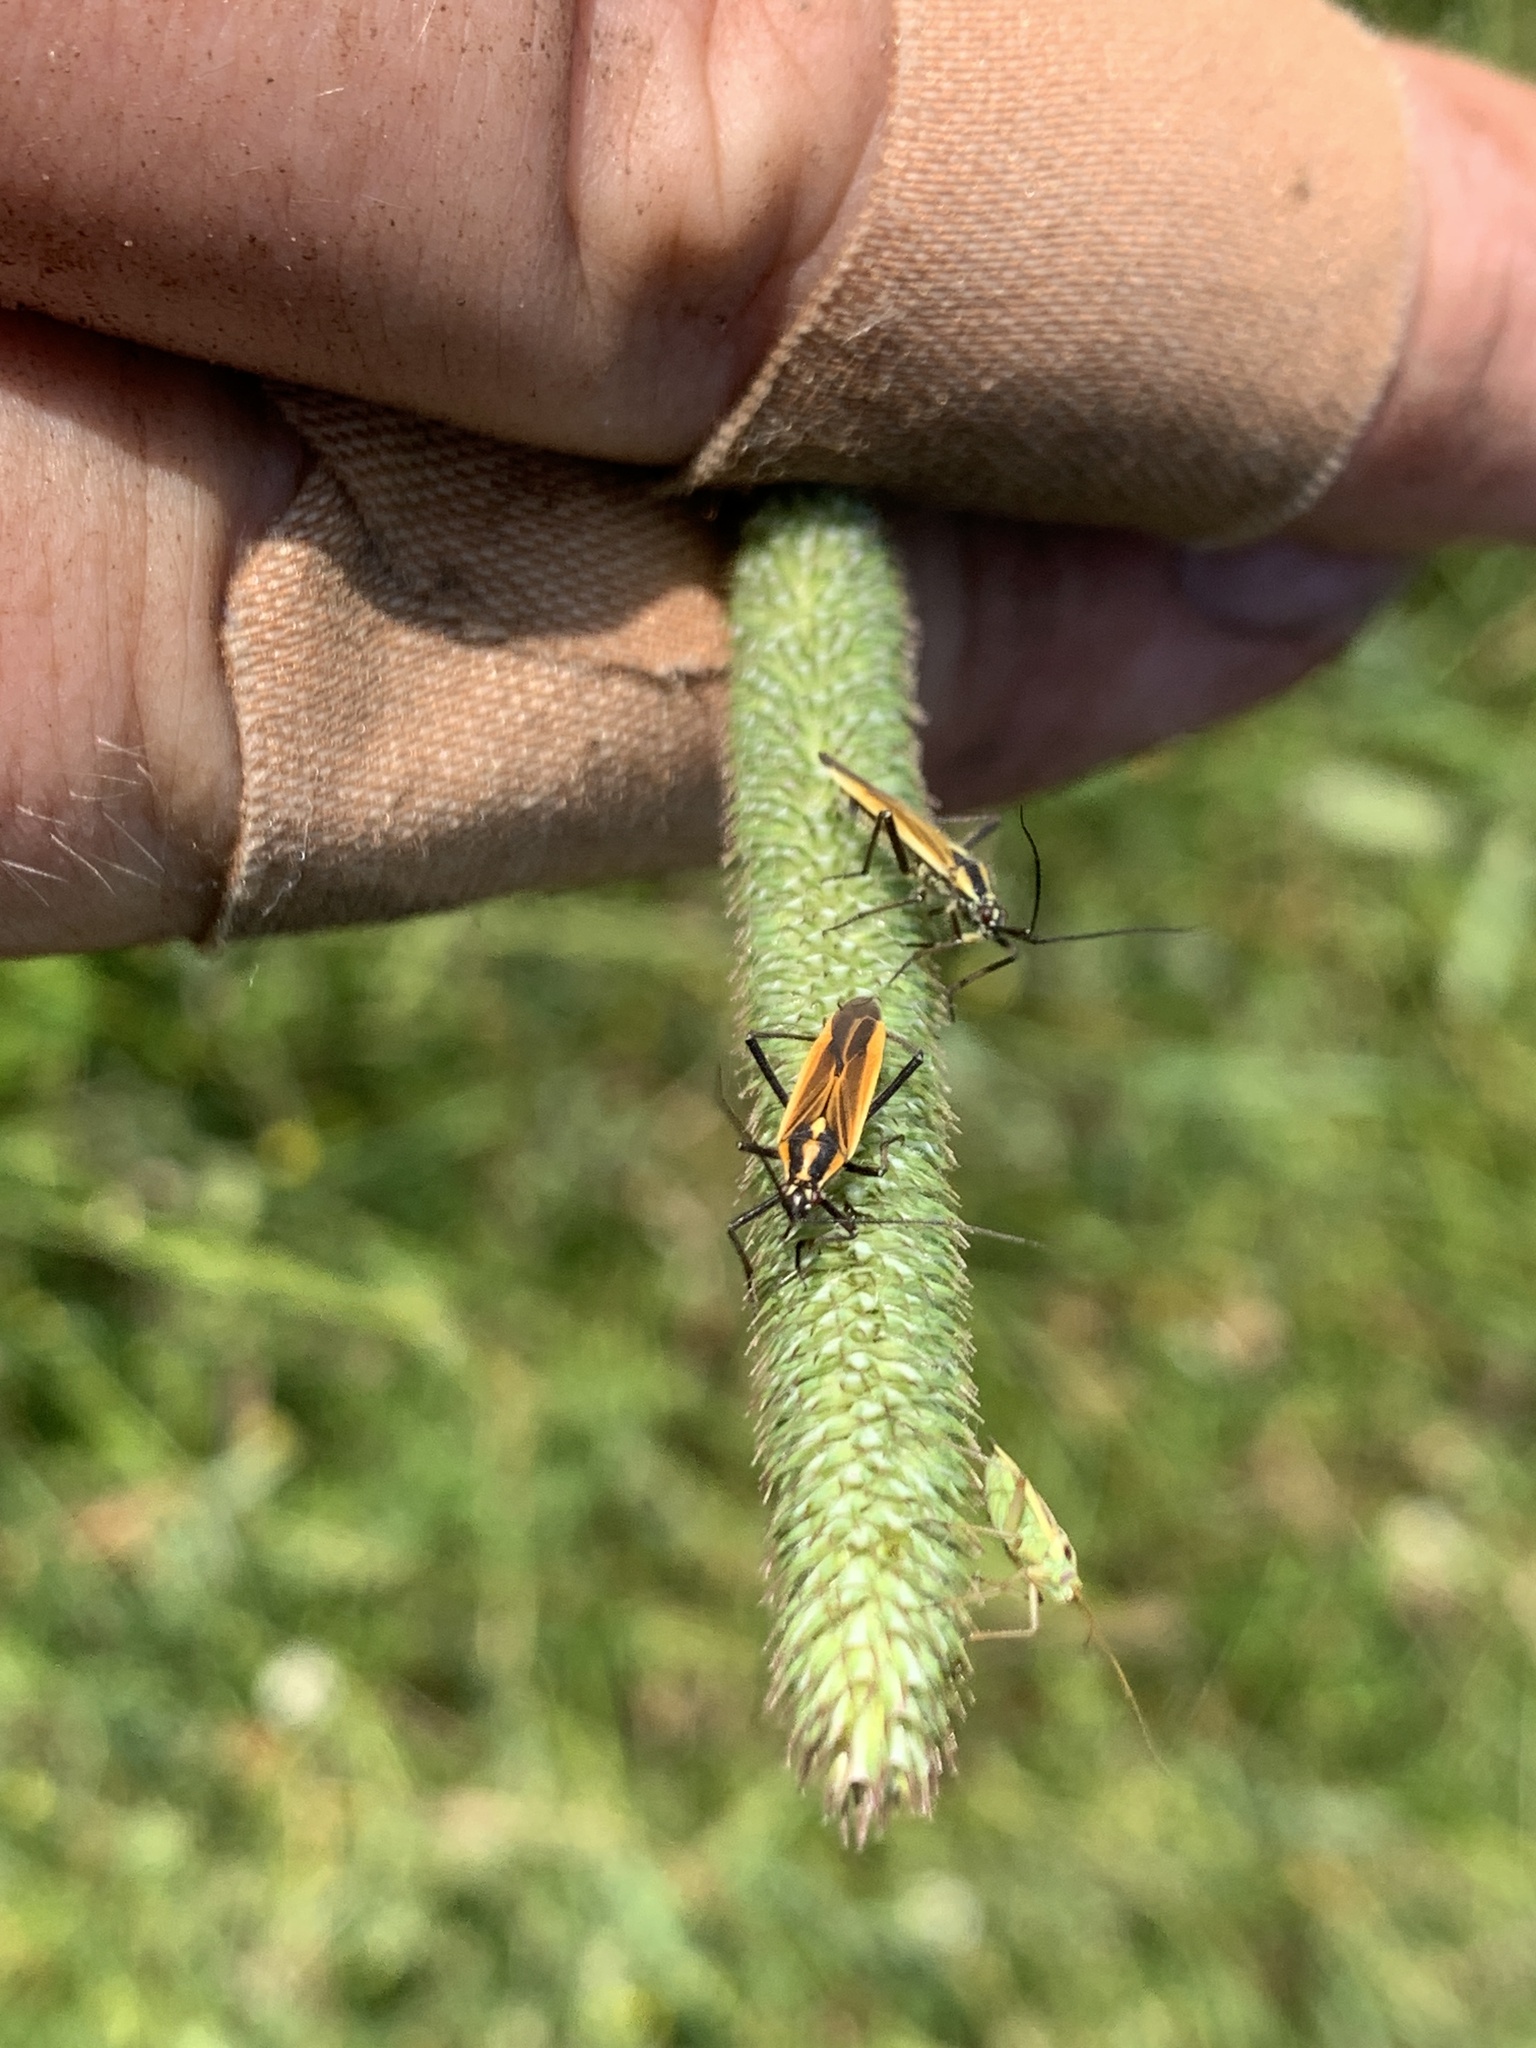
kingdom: Animalia
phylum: Arthropoda
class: Insecta
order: Hemiptera
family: Miridae
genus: Leptopterna
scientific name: Leptopterna dolabrata
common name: Meadow plant bug
